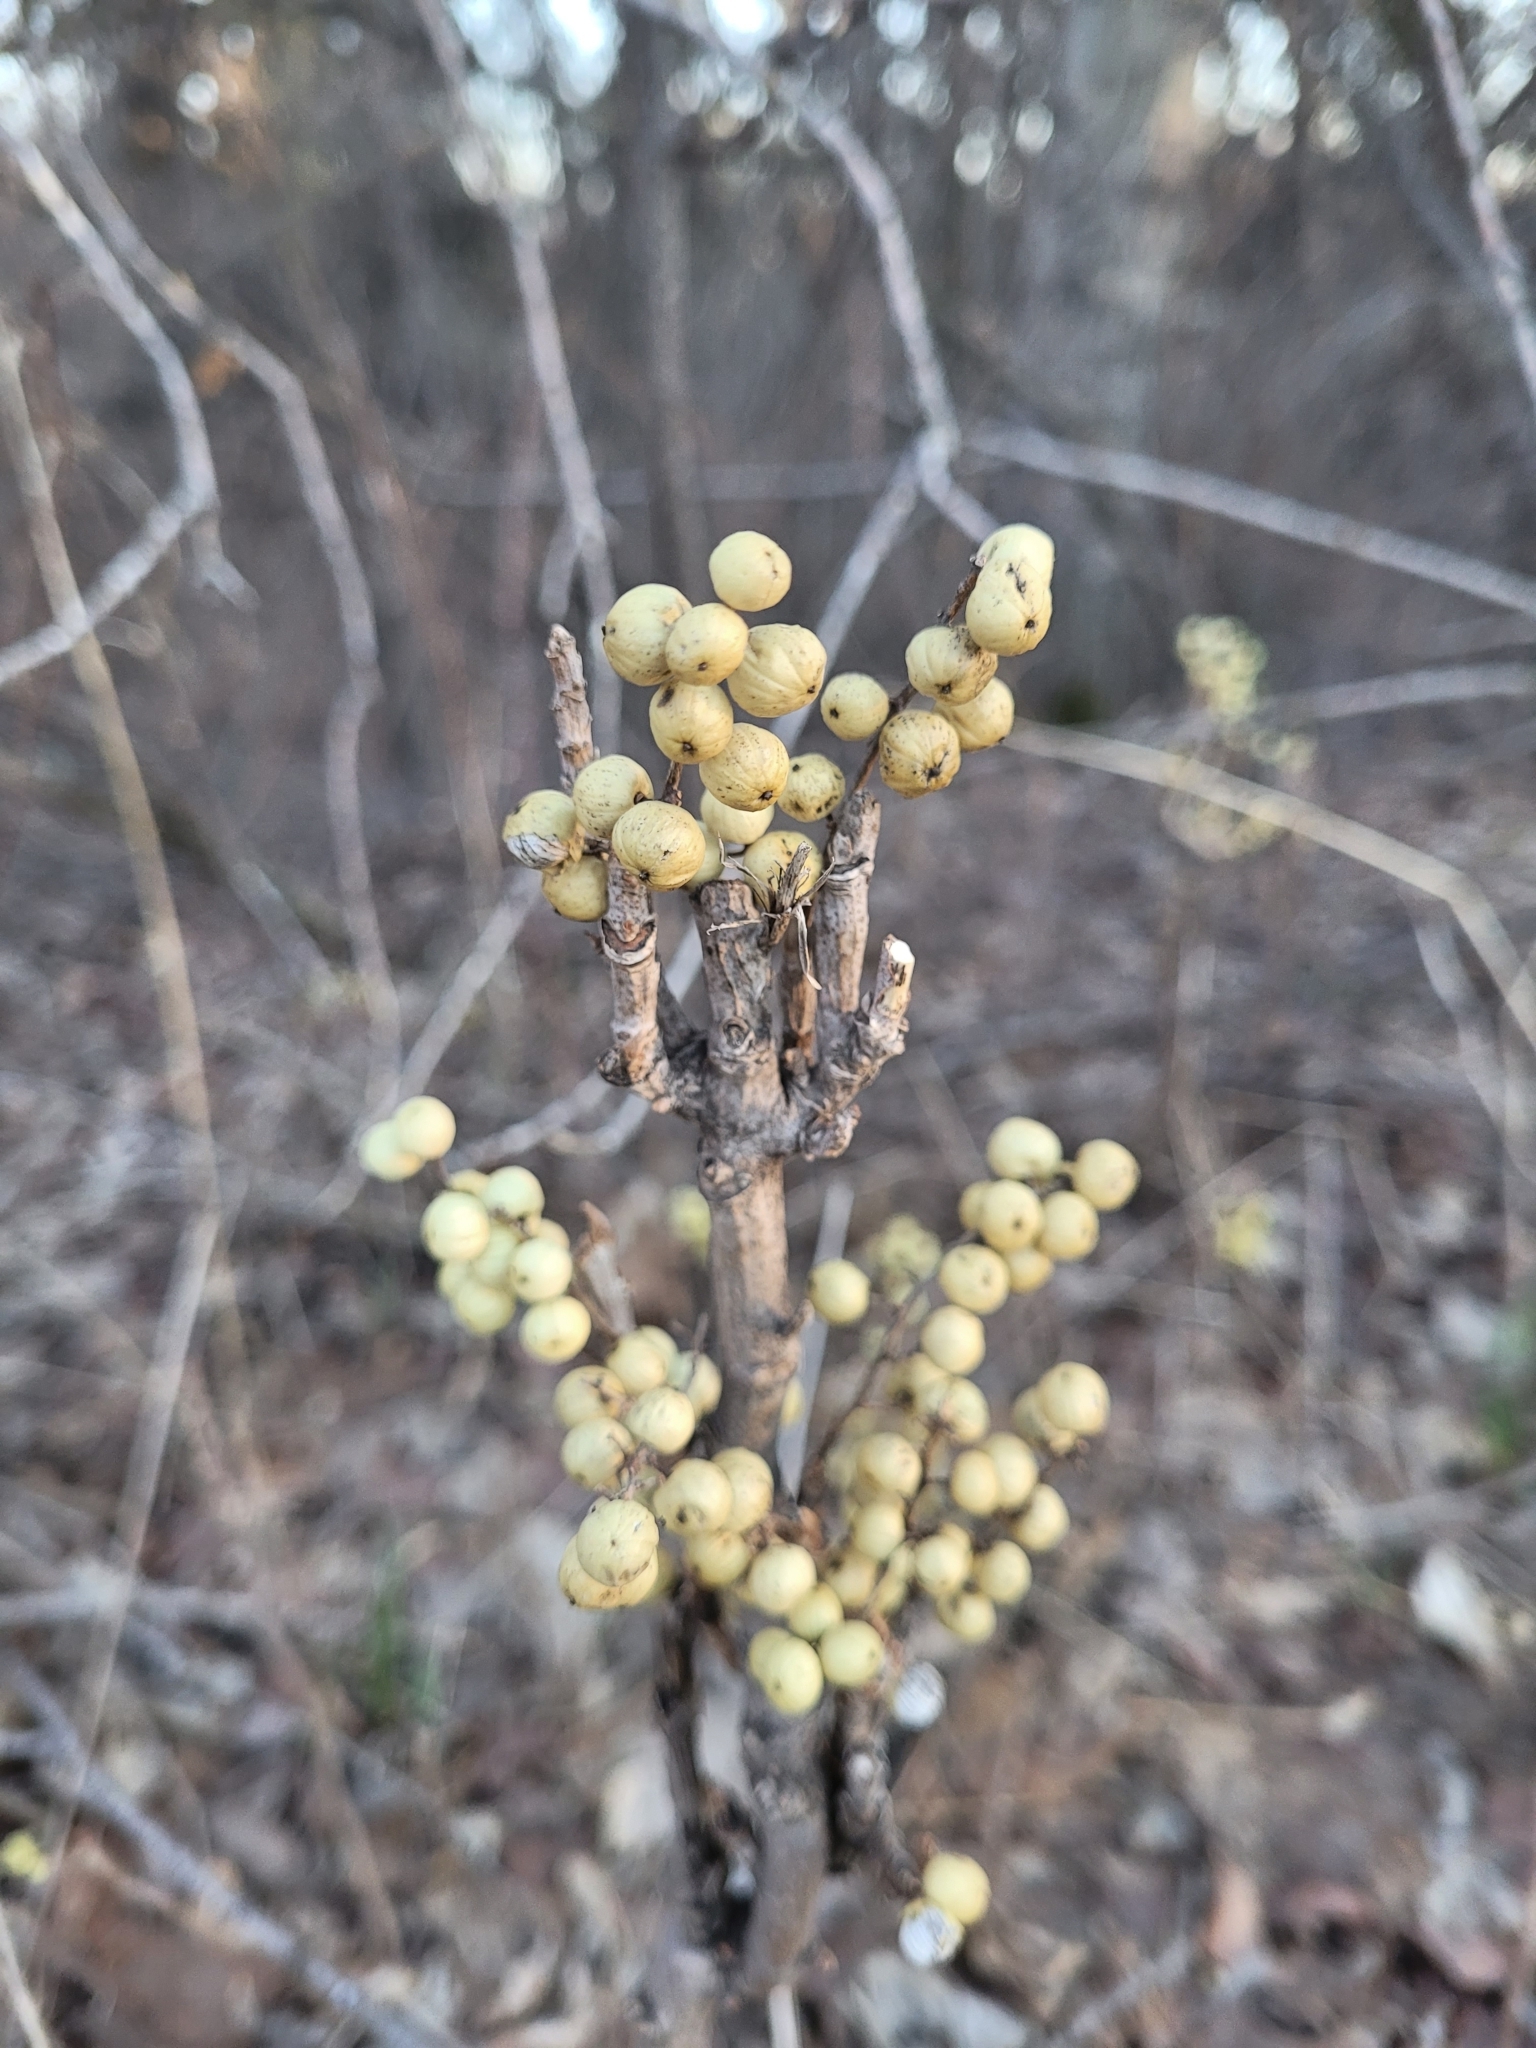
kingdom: Plantae
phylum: Tracheophyta
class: Magnoliopsida
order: Sapindales
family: Anacardiaceae
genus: Toxicodendron
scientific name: Toxicodendron rydbergii
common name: Rydberg's poison-ivy
